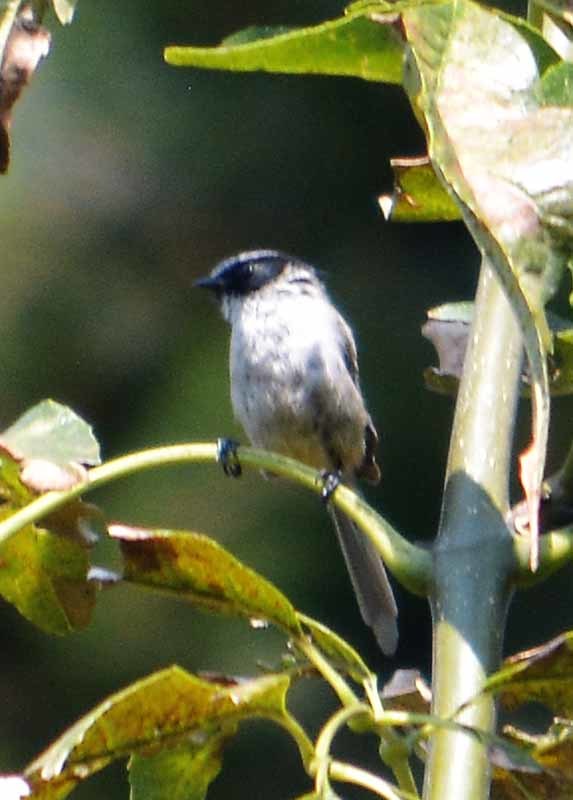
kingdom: Animalia
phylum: Chordata
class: Aves
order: Passeriformes
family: Aegithalidae
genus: Psaltriparus
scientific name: Psaltriparus minimus
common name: American bushtit
